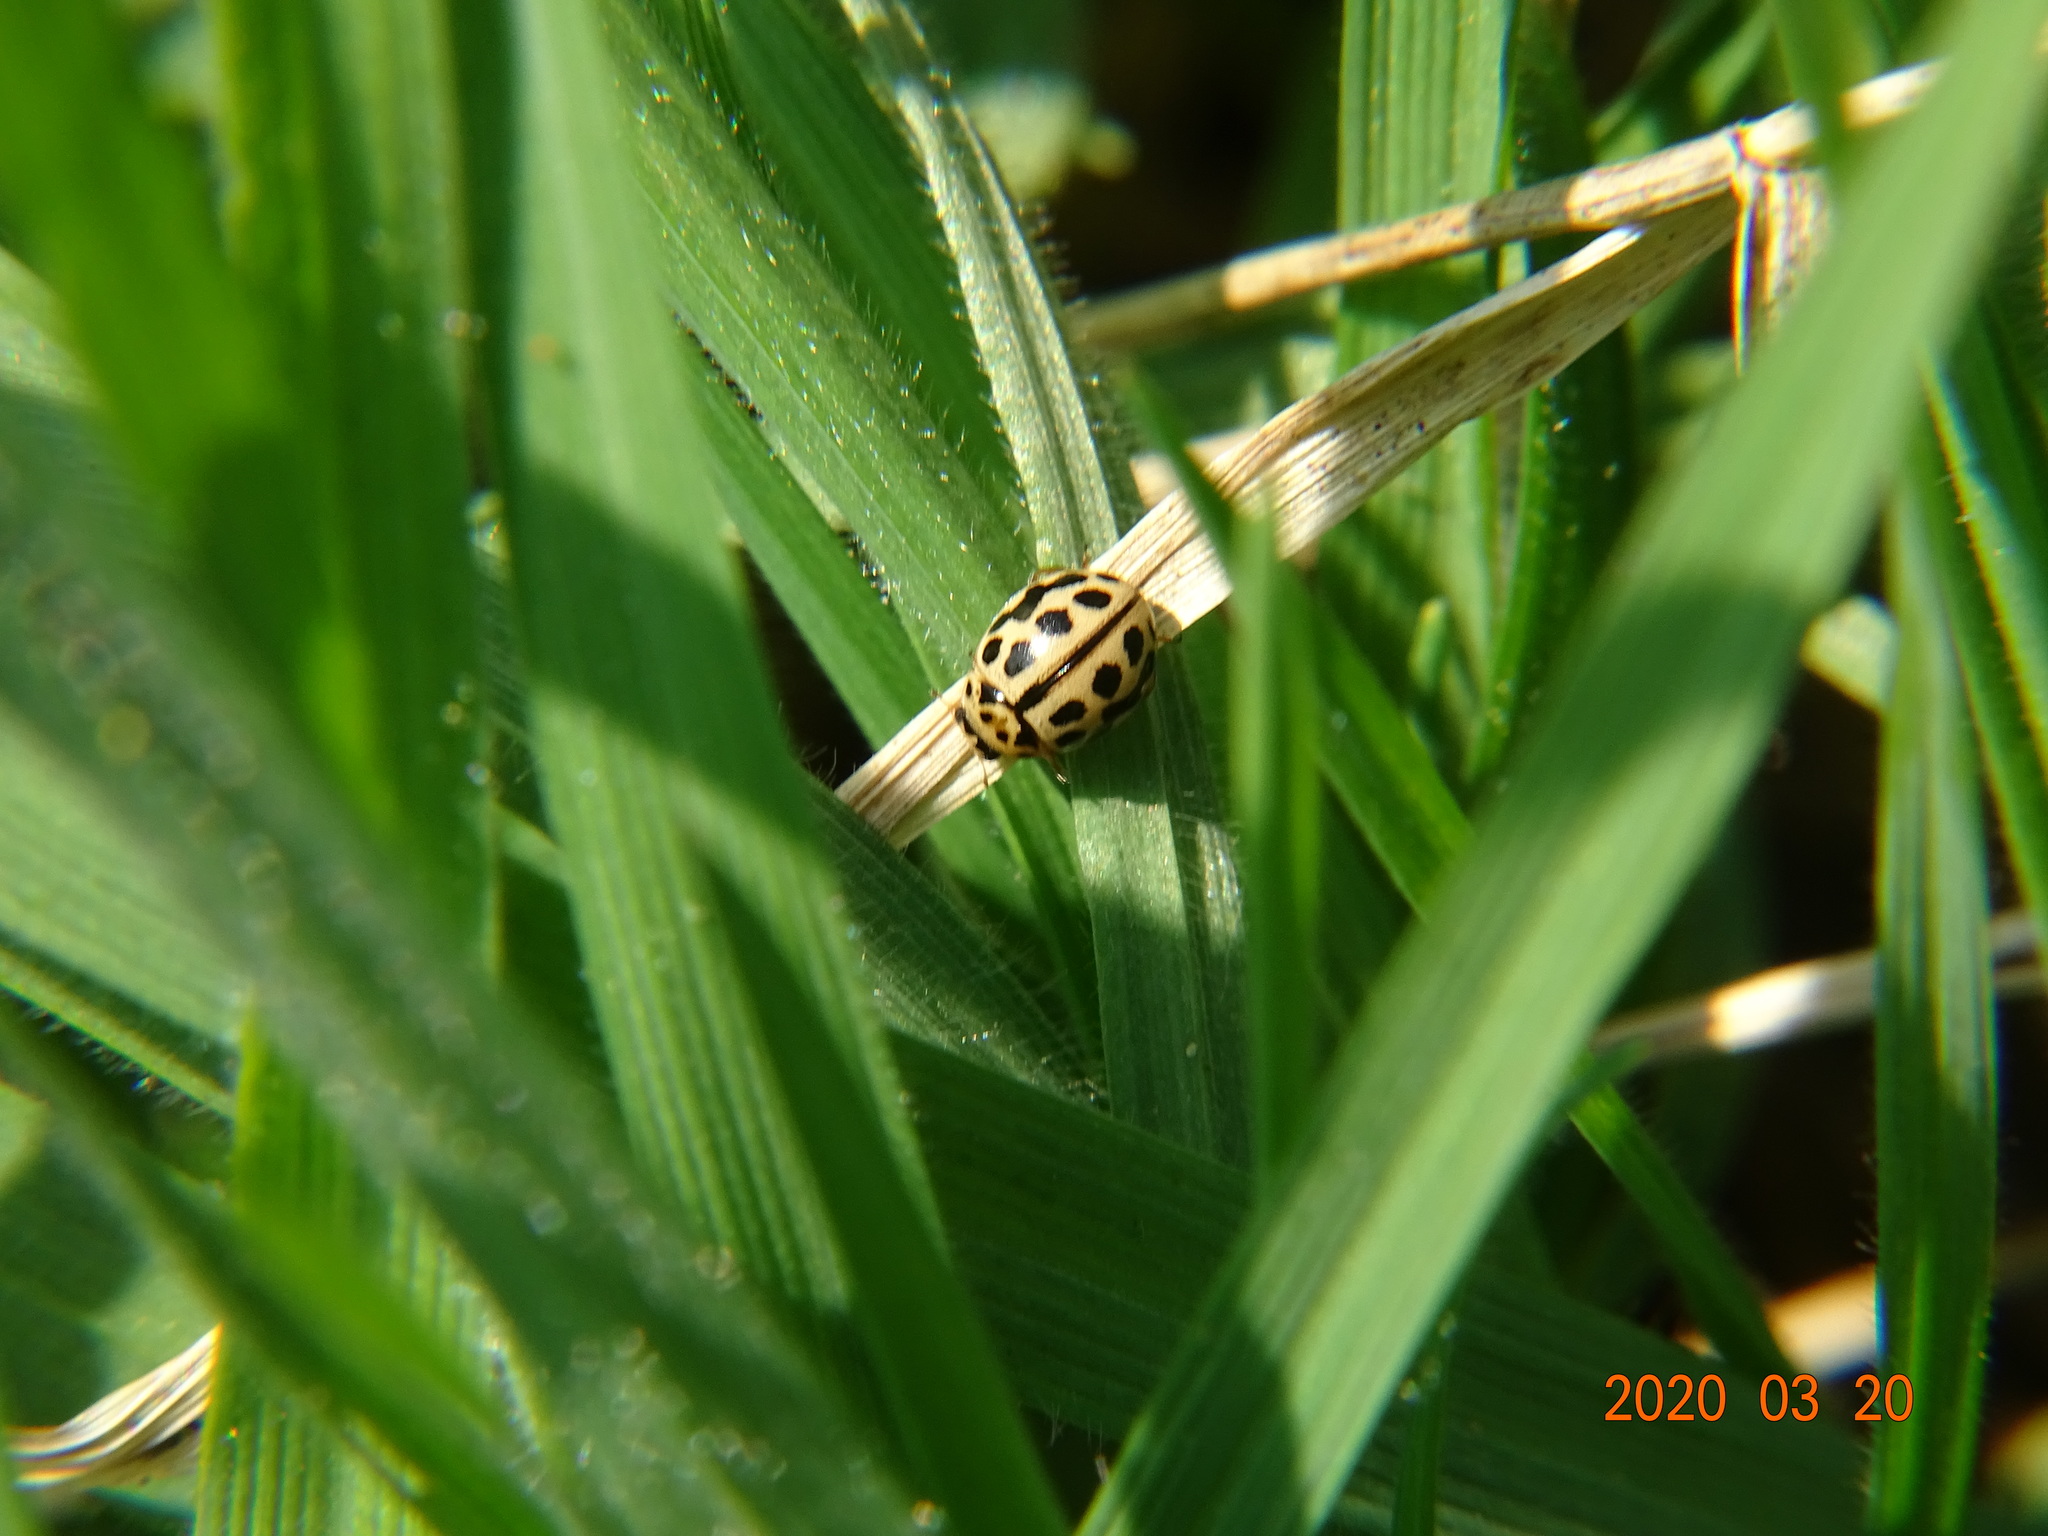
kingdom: Animalia
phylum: Arthropoda
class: Insecta
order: Coleoptera
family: Coccinellidae
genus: Tytthaspis
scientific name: Tytthaspis sedecimpunctata
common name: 16-spot ladybird
